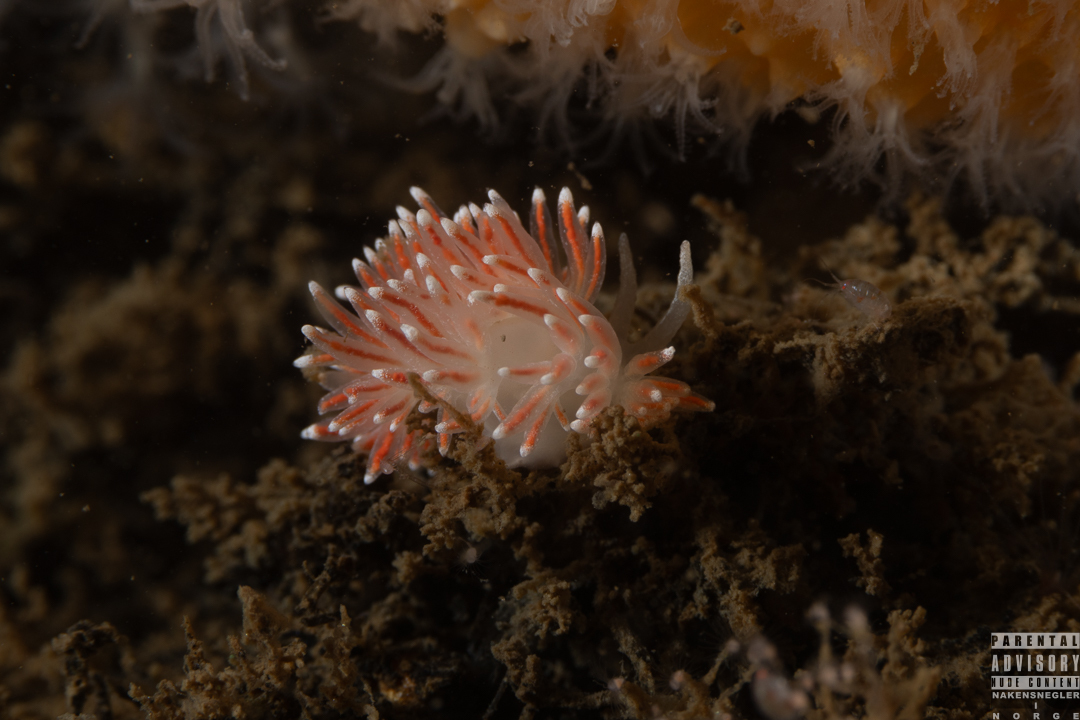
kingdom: Animalia
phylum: Mollusca
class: Gastropoda
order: Nudibranchia
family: Flabellinidae
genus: Carronella
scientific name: Carronella pellucida
